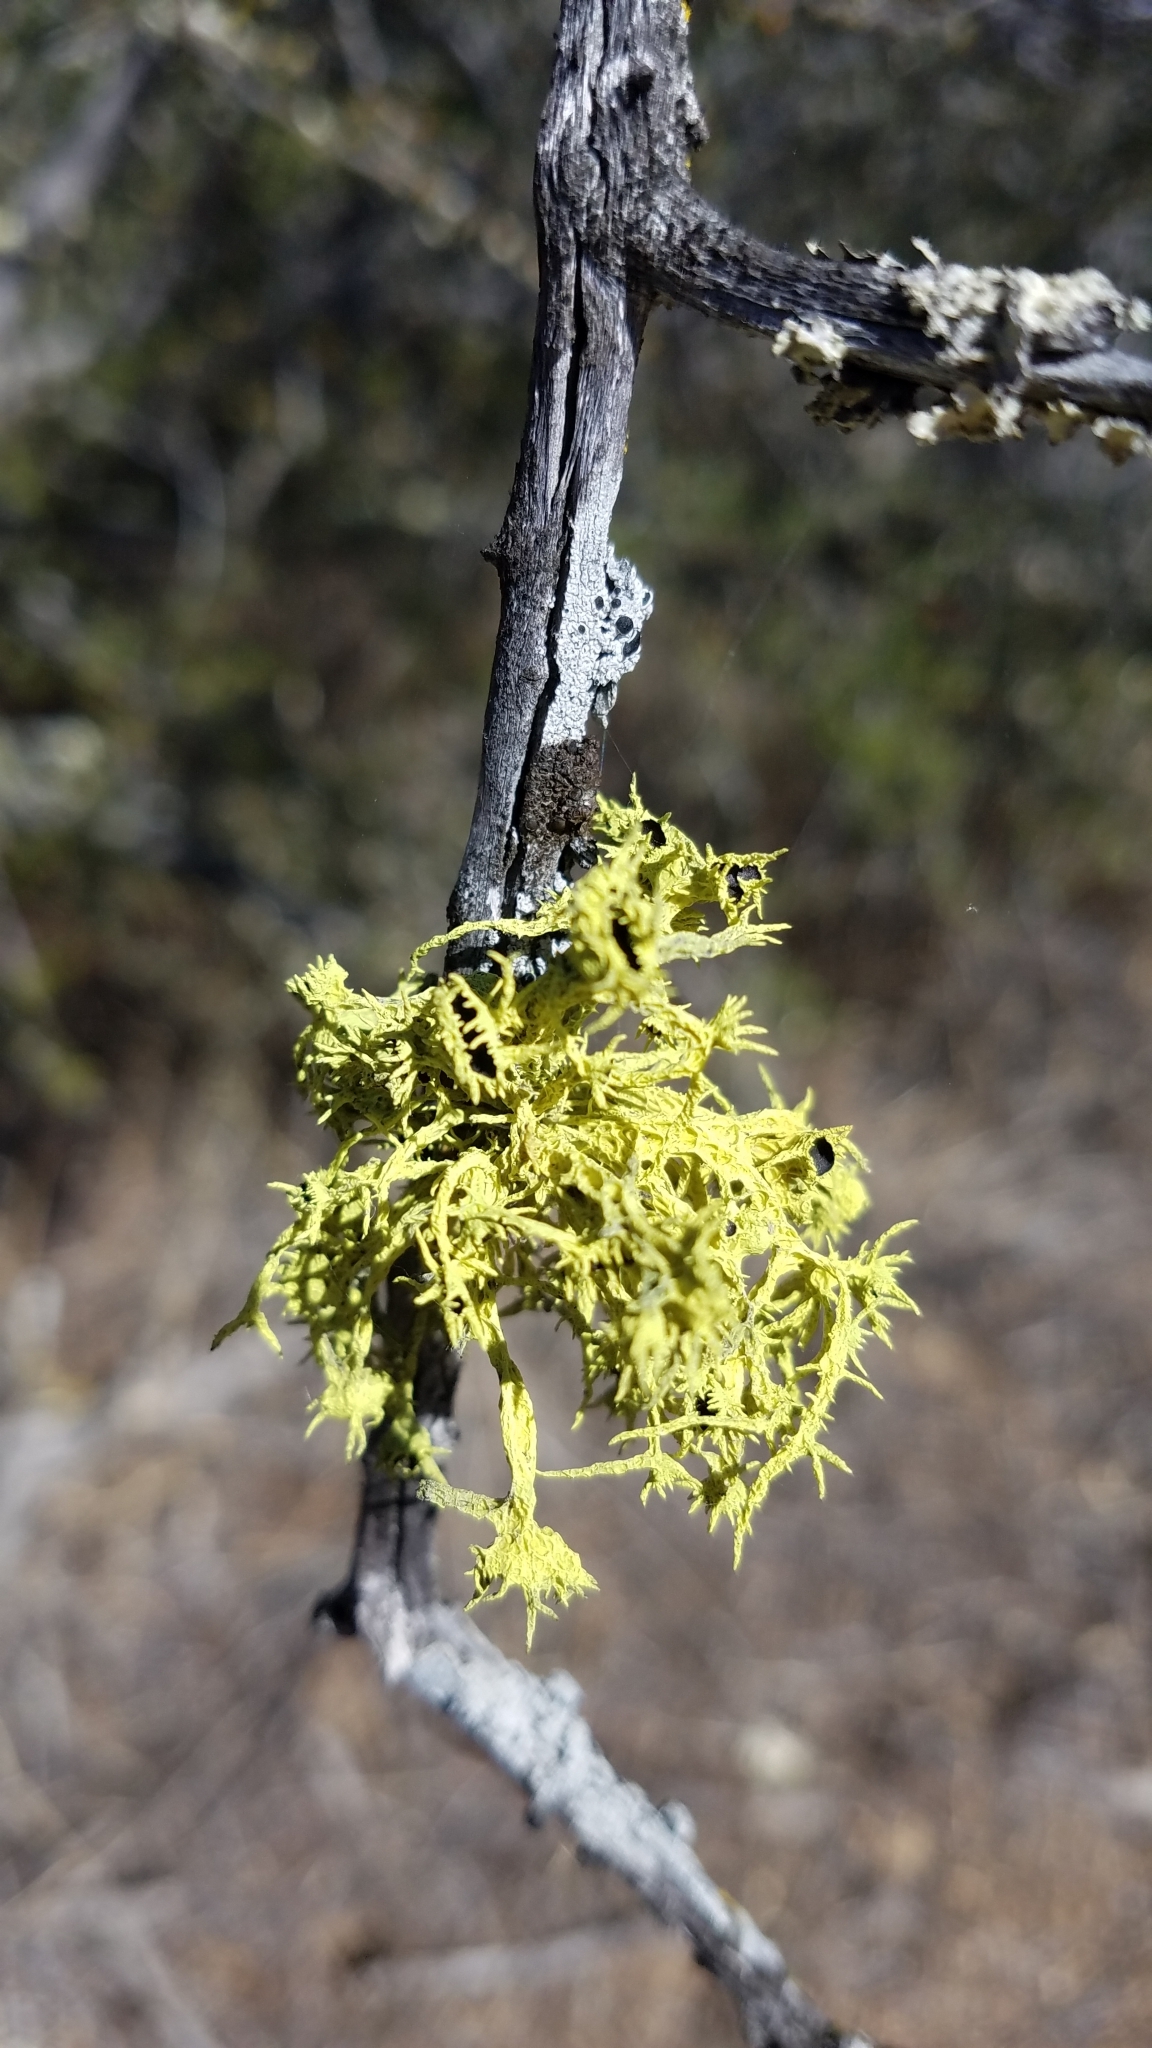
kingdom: Fungi
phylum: Ascomycota
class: Lecanoromycetes
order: Lecanorales
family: Parmeliaceae
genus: Letharia
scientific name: Letharia columbiana
